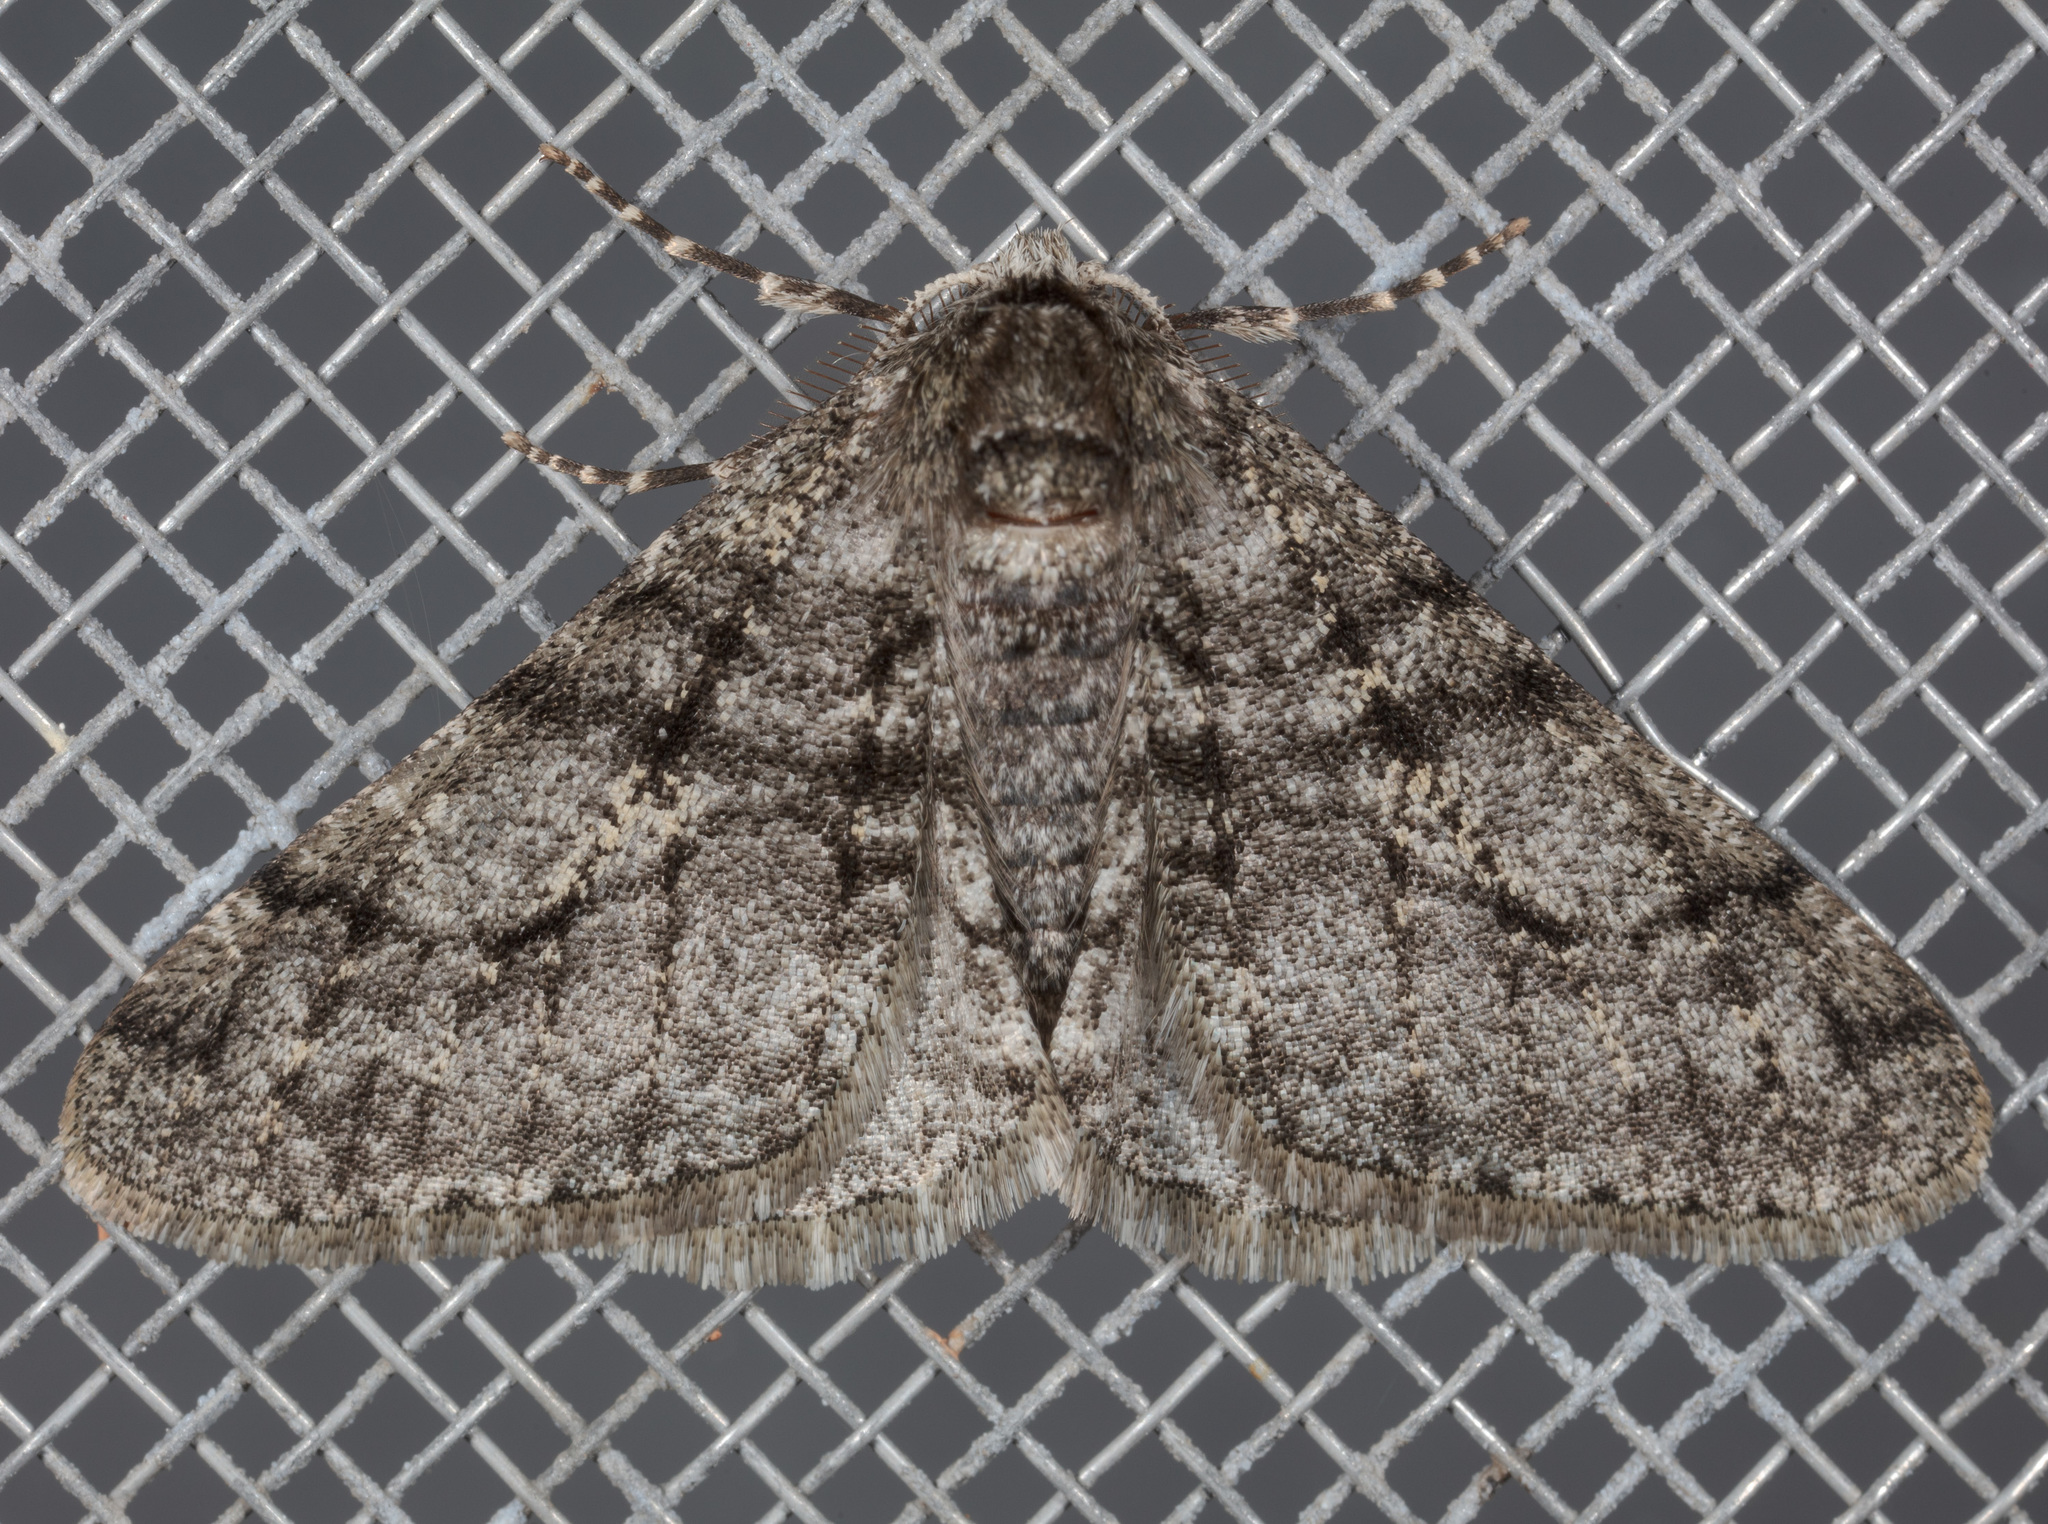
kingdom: Animalia
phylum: Arthropoda
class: Insecta
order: Lepidoptera
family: Geometridae
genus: Phigalia
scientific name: Phigalia titea
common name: Spiny looper
